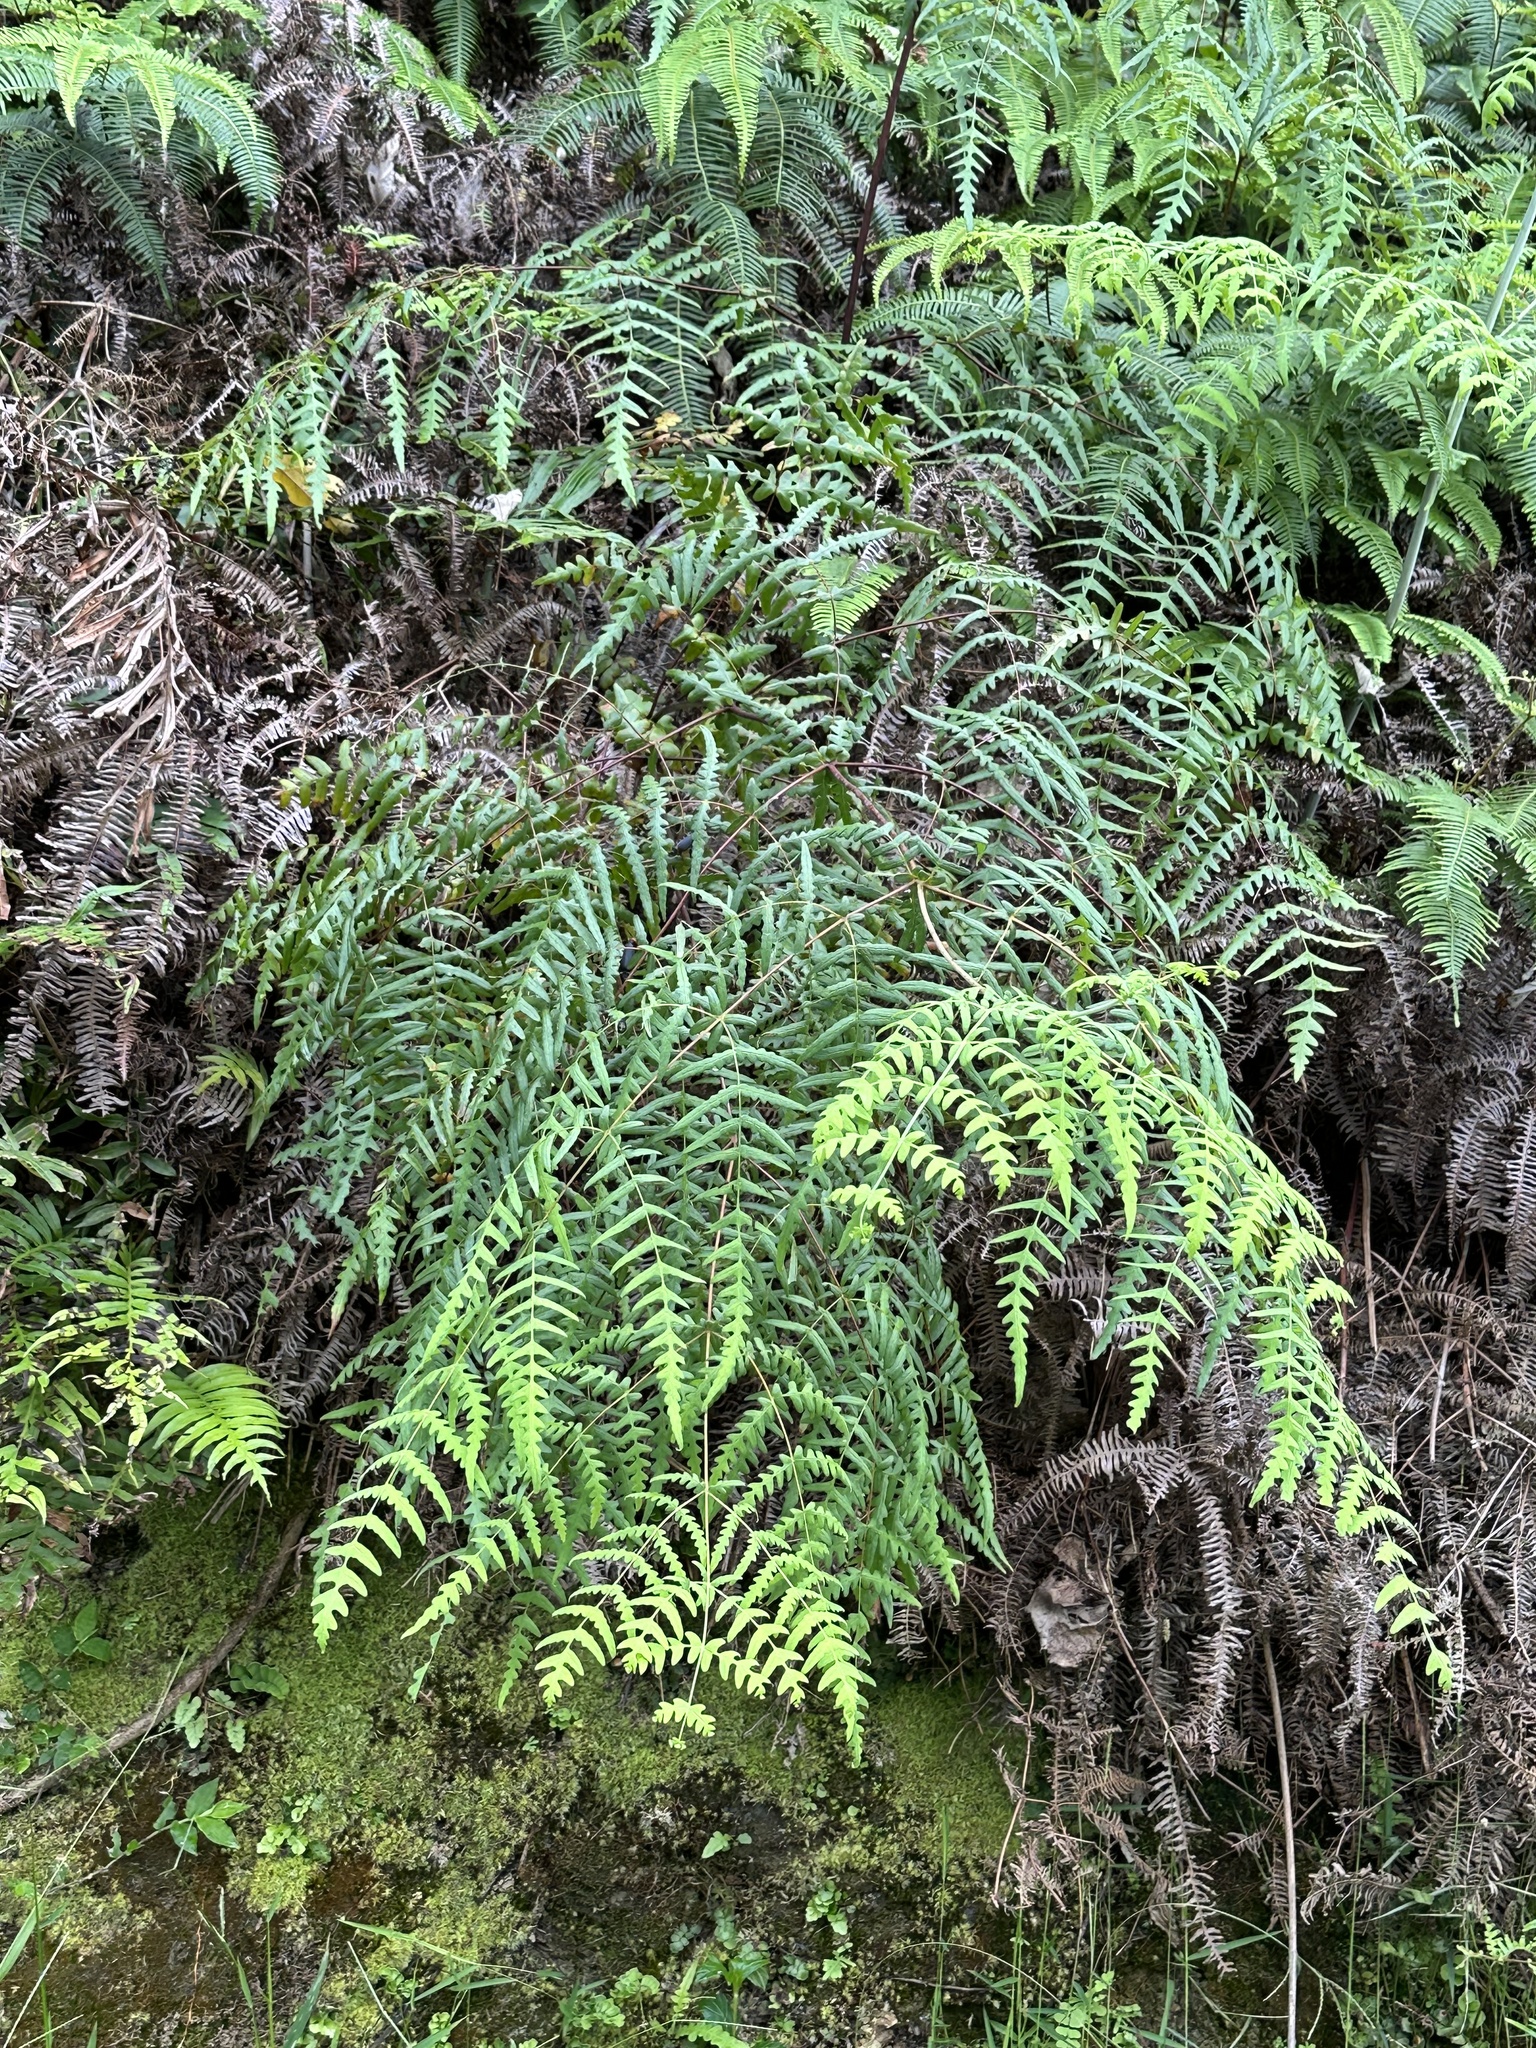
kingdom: Plantae
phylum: Tracheophyta
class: Polypodiopsida
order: Polypodiales
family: Dennstaedtiaceae
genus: Histiopteris
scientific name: Histiopteris incisa
